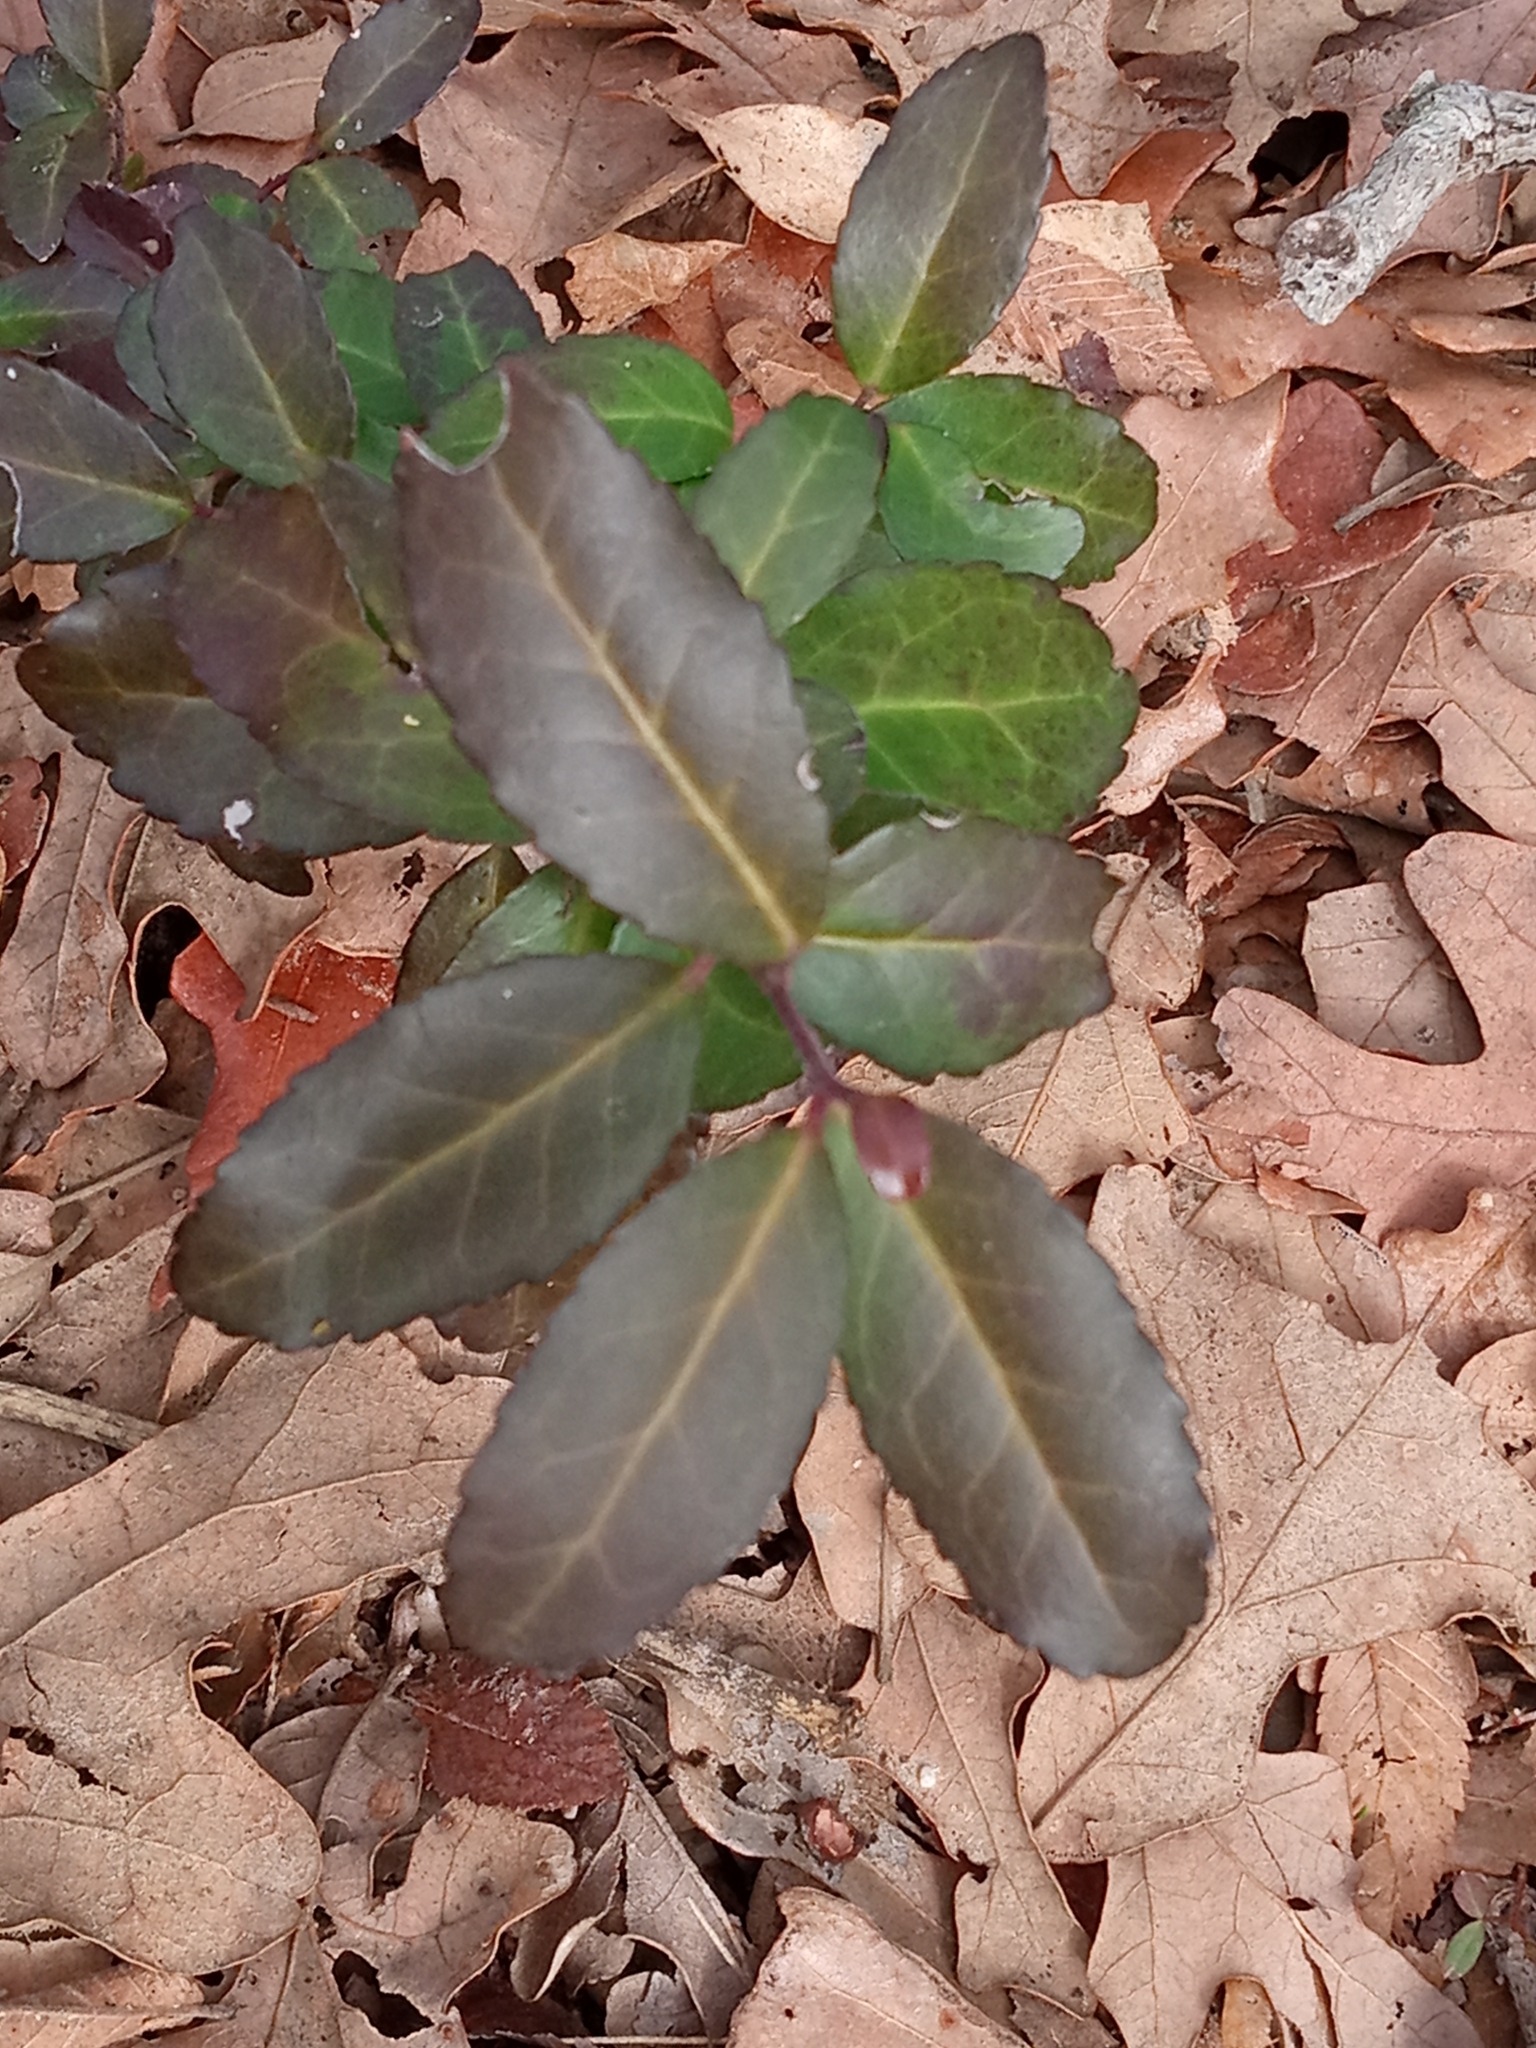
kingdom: Plantae
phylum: Tracheophyta
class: Magnoliopsida
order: Aquifoliales
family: Aquifoliaceae
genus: Ilex
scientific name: Ilex vomitoria
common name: Yaupon holly
